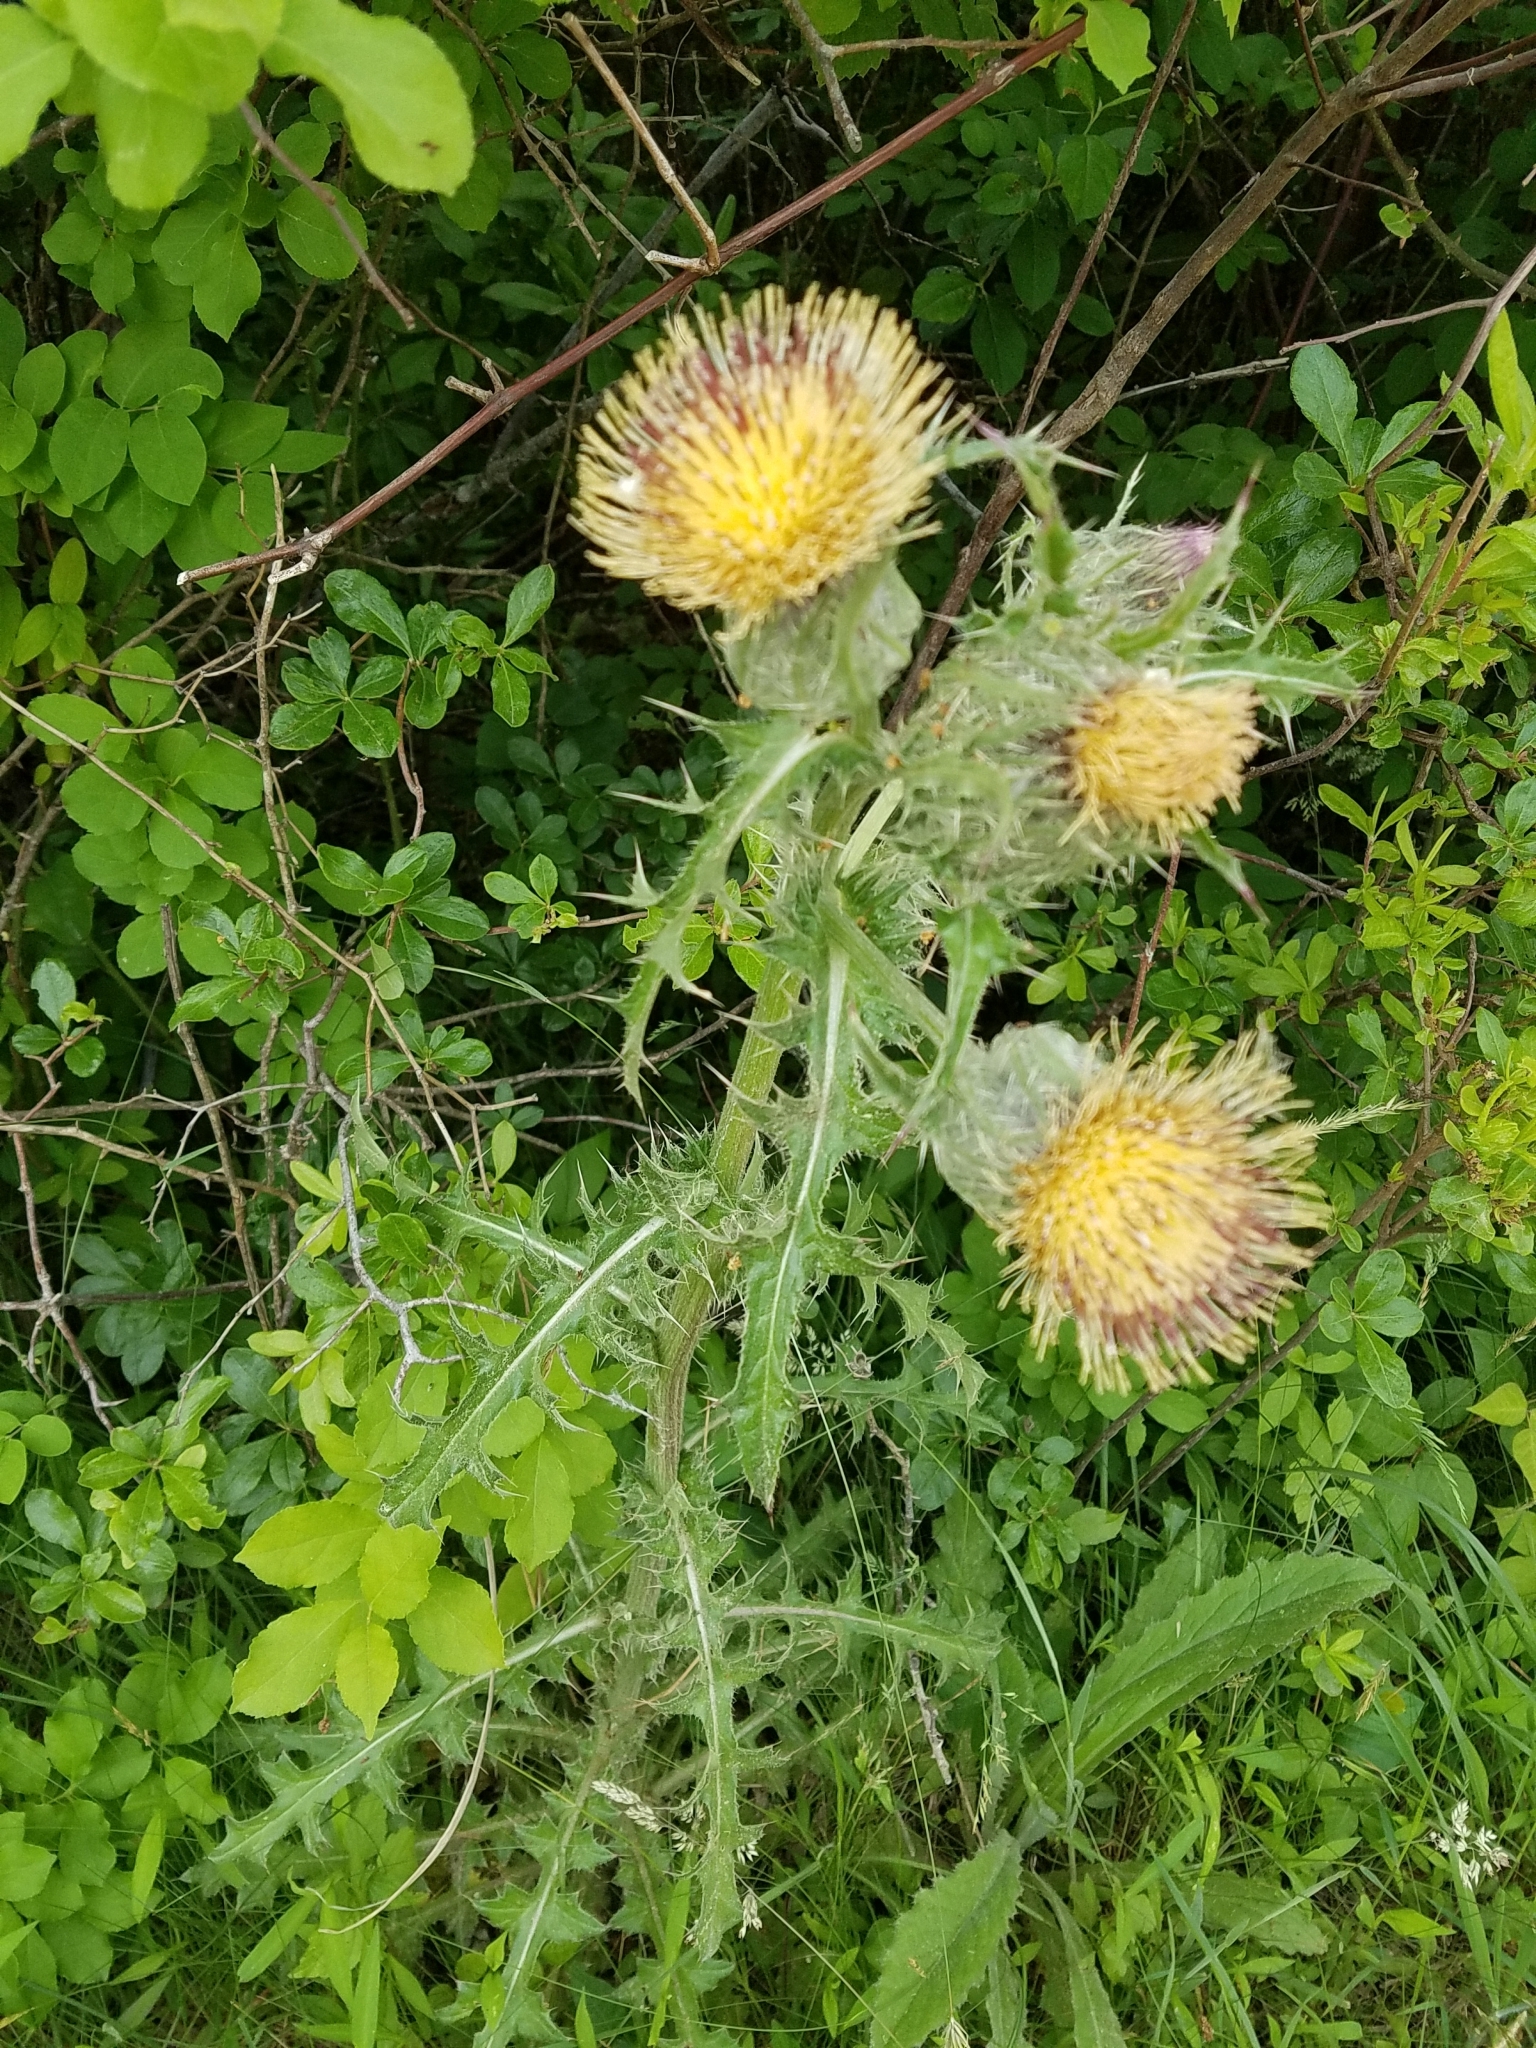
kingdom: Plantae
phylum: Tracheophyta
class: Magnoliopsida
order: Asterales
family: Asteraceae
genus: Cirsium
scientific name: Cirsium horridulum
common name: Bristly thistle
